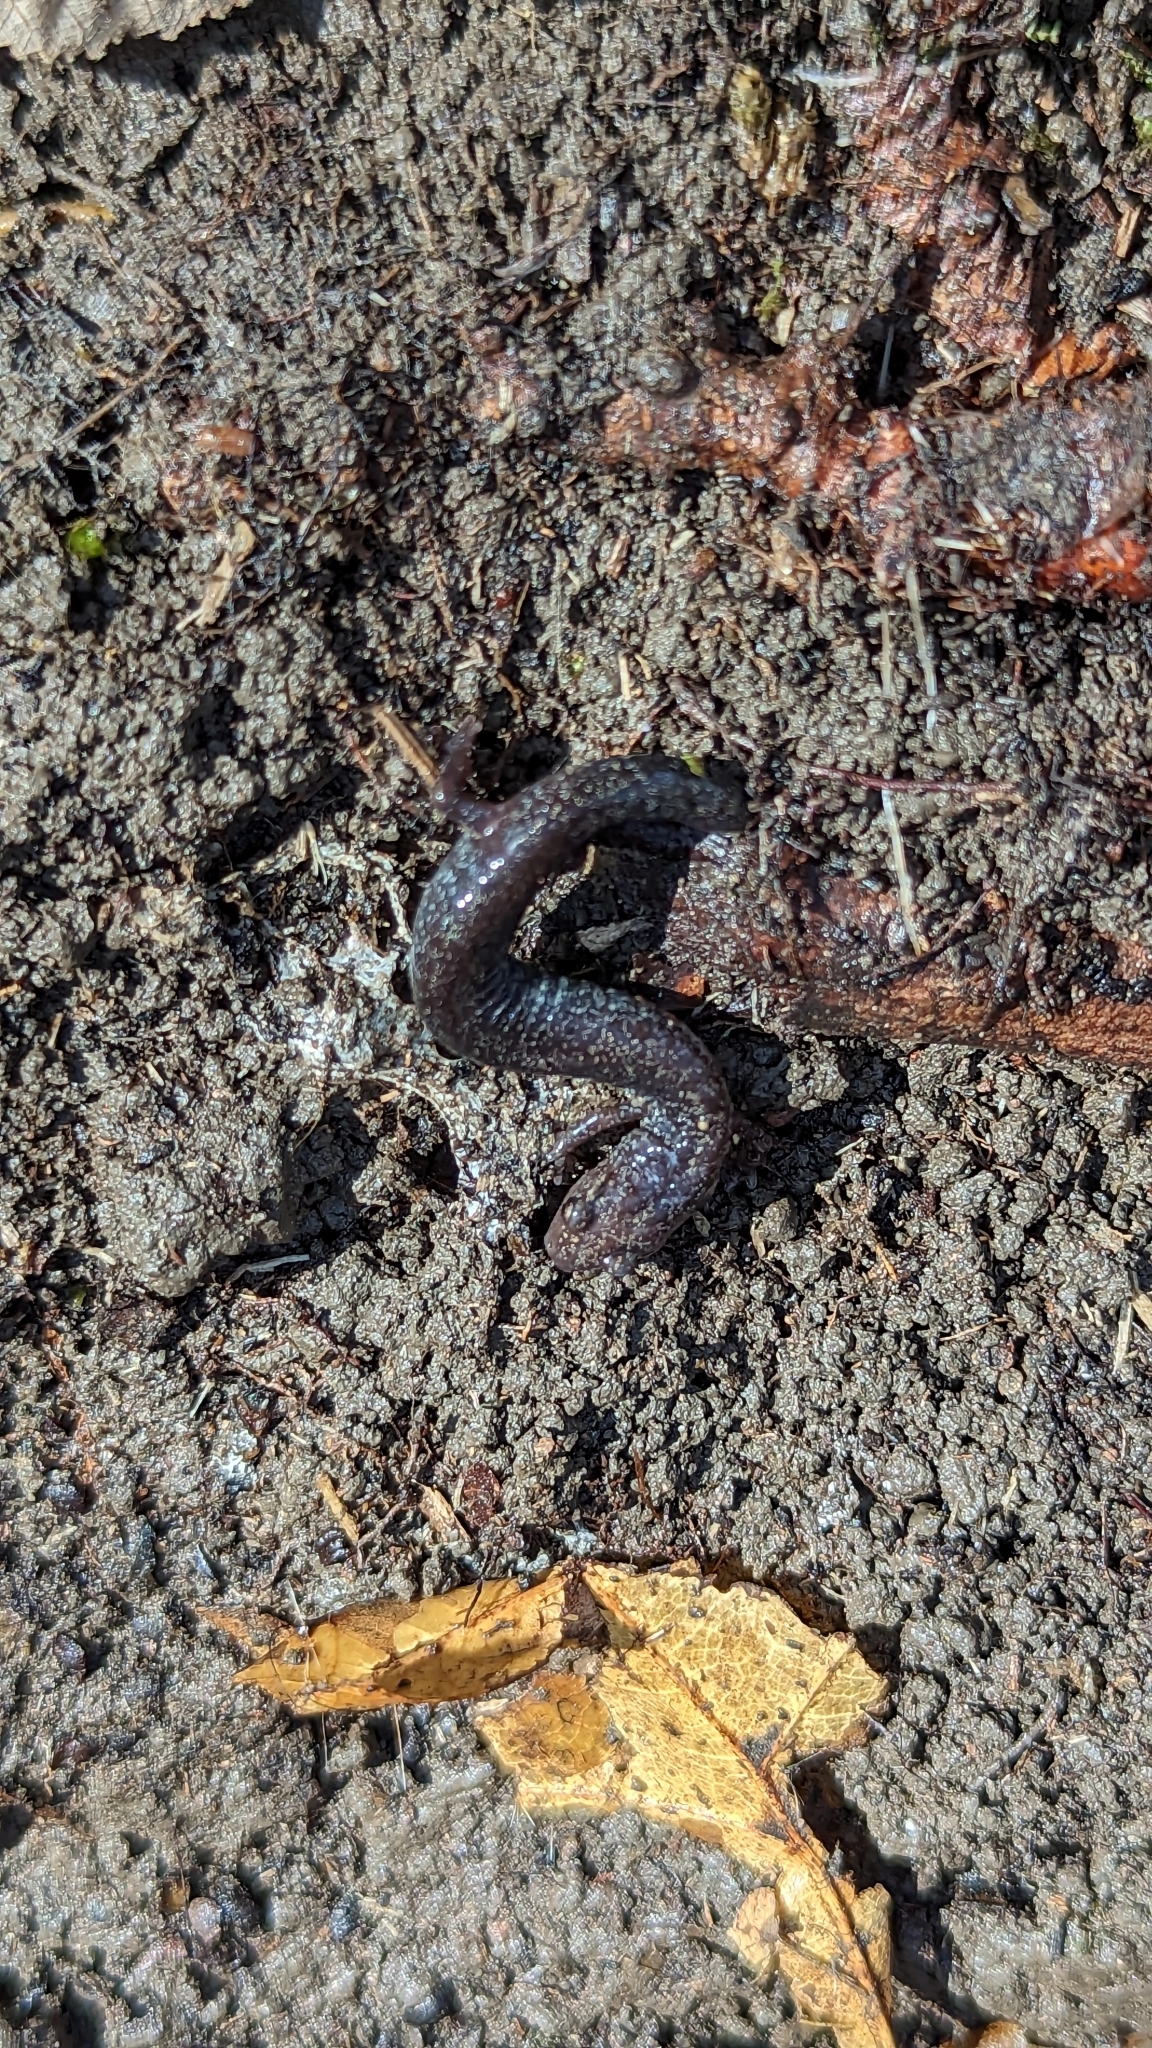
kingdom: Animalia
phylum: Chordata
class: Amphibia
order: Caudata
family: Plethodontidae
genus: Plethodon
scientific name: Plethodon cinereus
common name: Redback salamander
